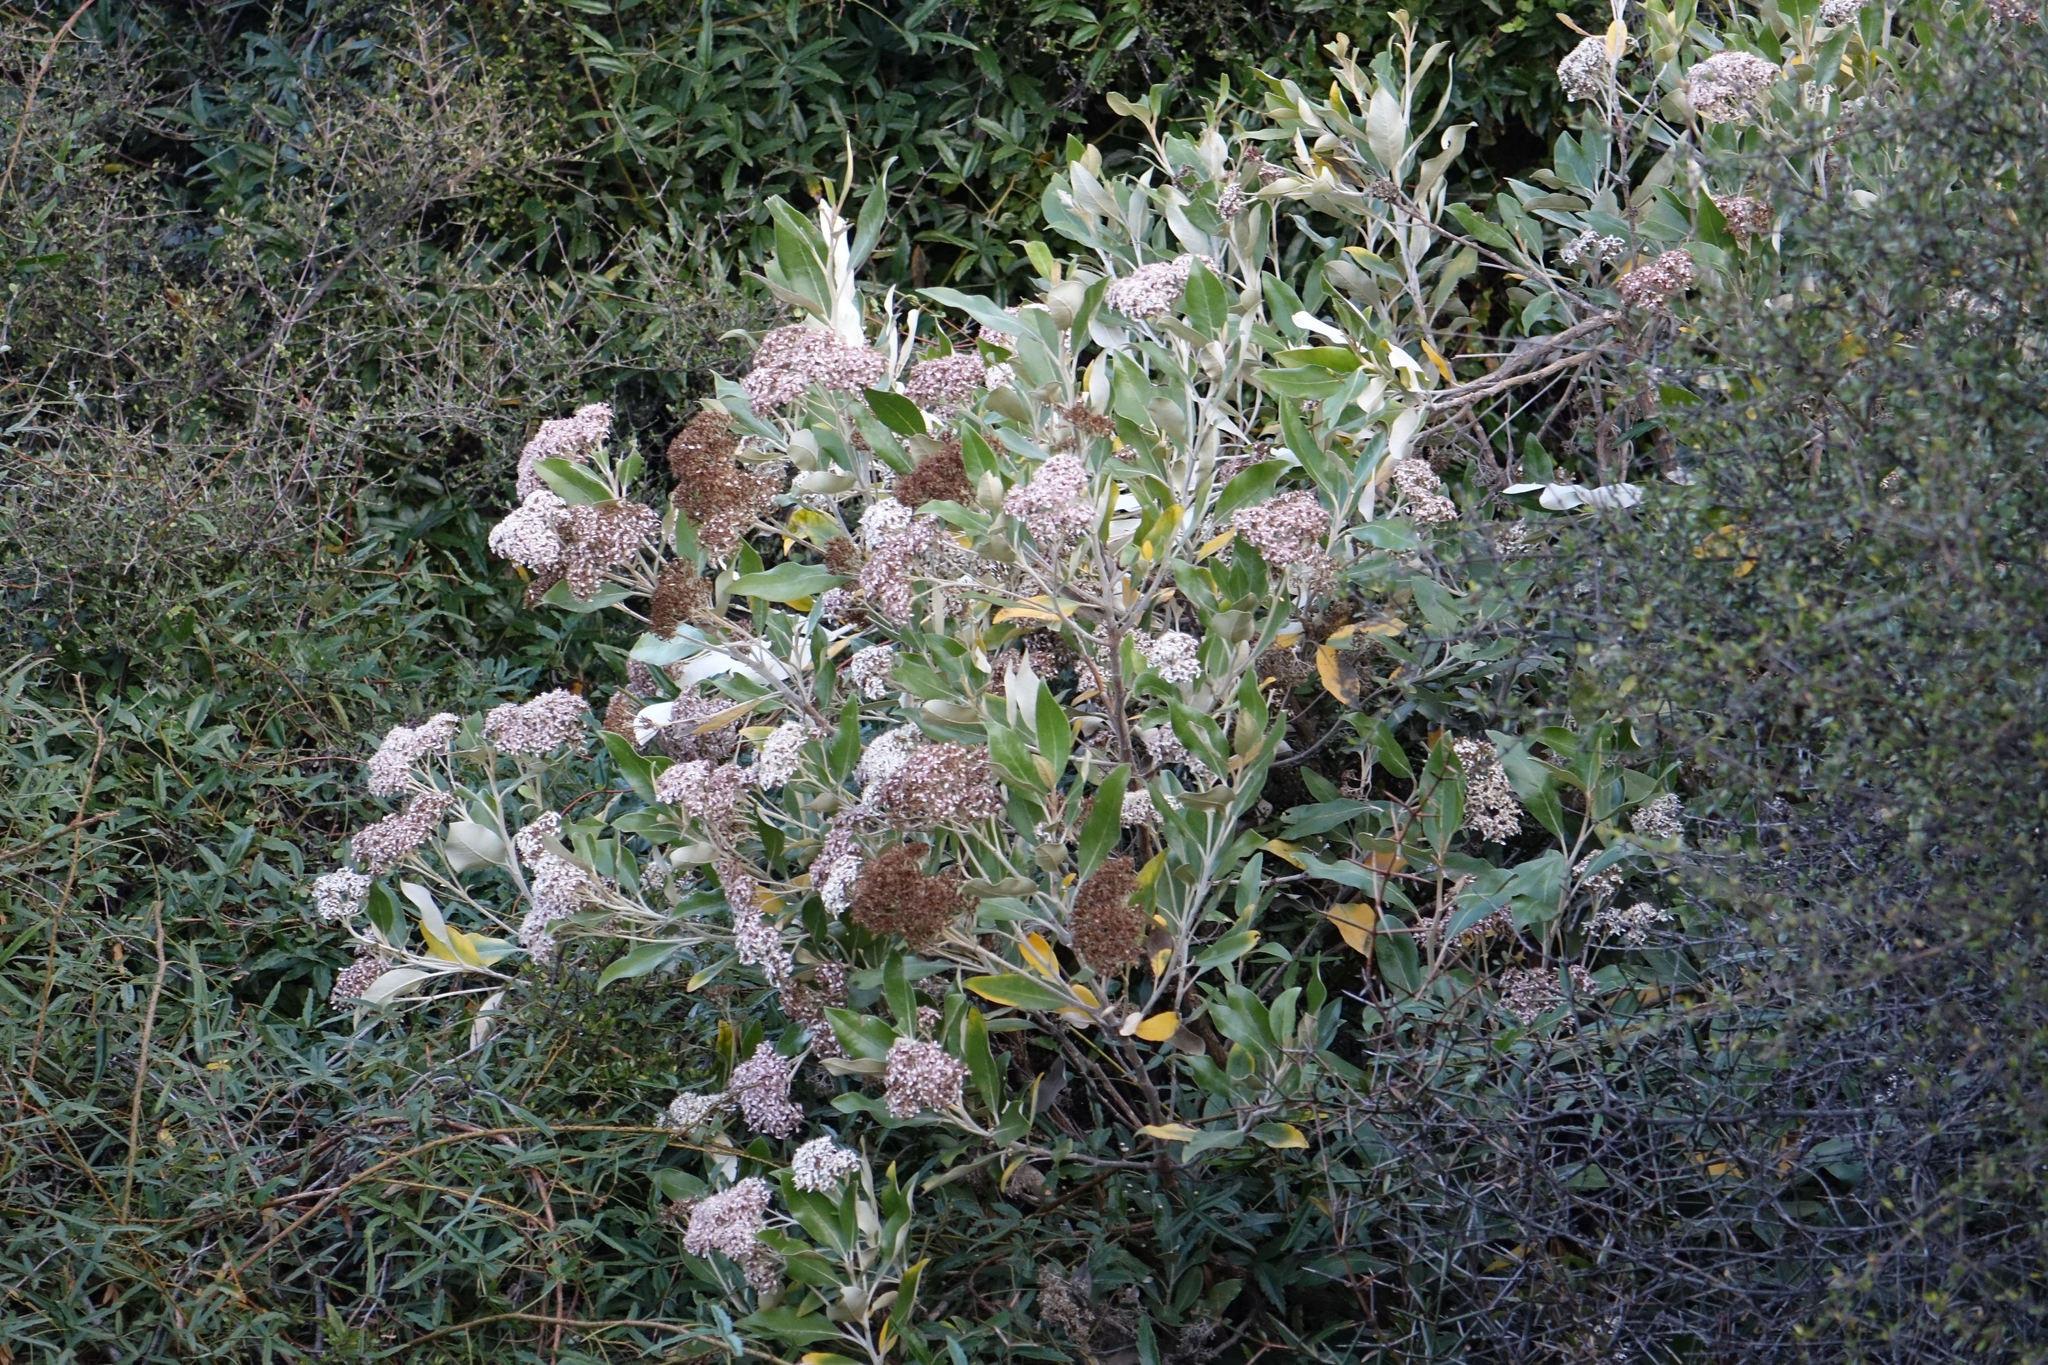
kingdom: Plantae
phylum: Tracheophyta
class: Magnoliopsida
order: Asterales
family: Asteraceae
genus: Olearia
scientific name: Olearia avicenniifolia
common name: Mangrove-leaf daisybush
